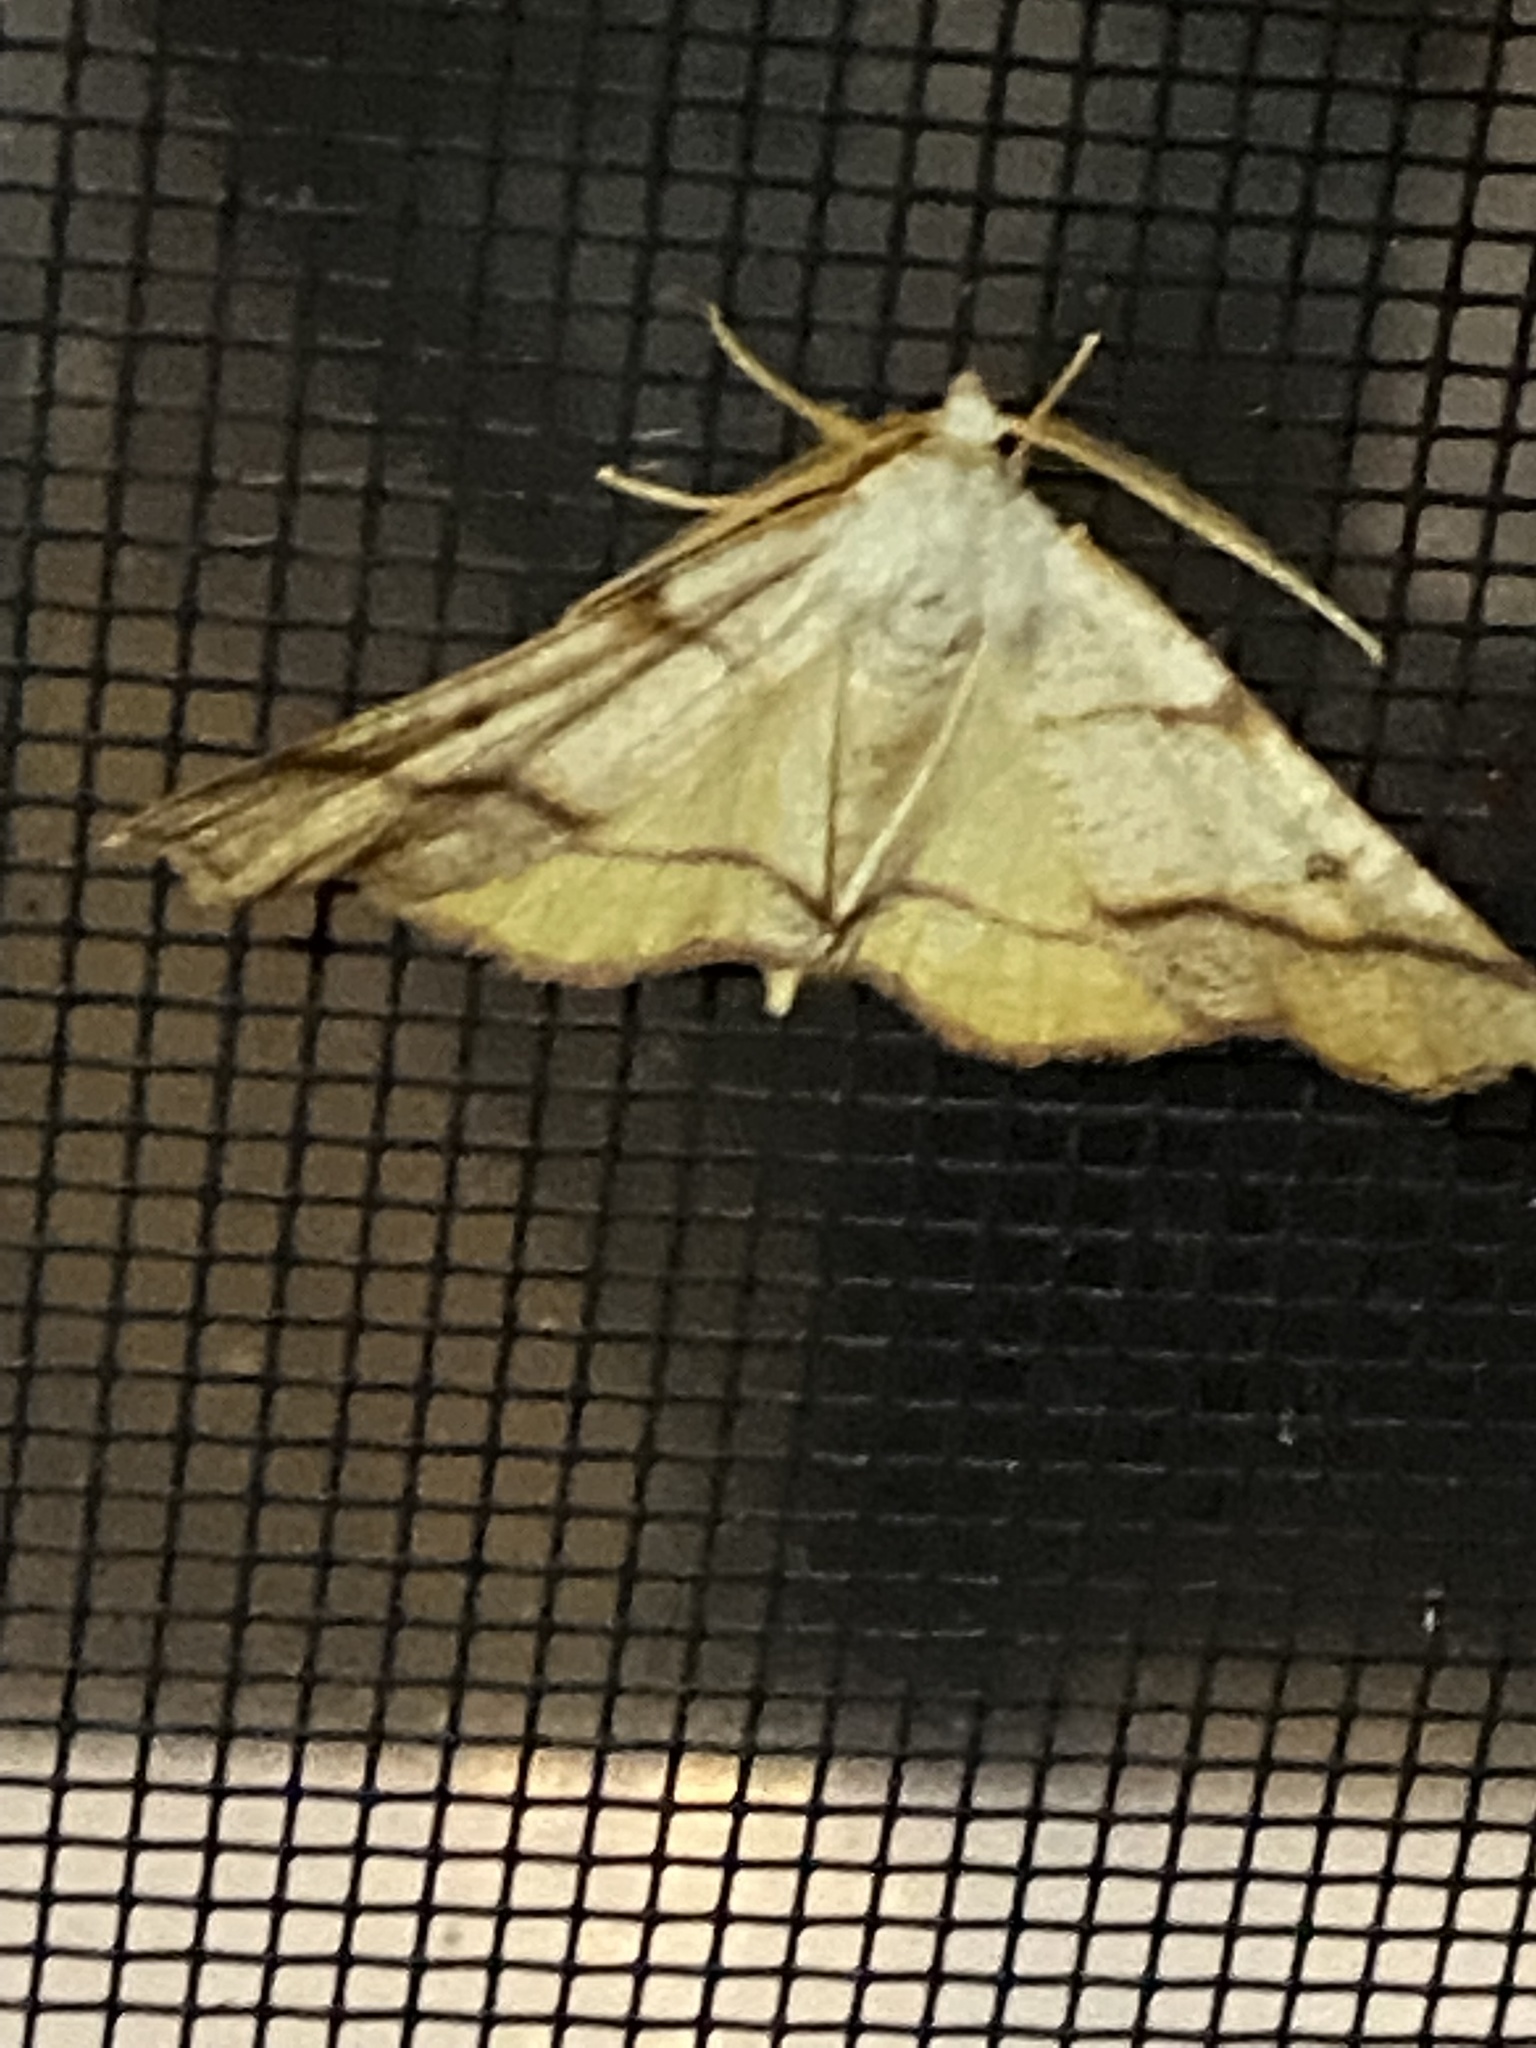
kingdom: Animalia
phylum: Arthropoda
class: Insecta
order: Lepidoptera
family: Geometridae
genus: Plagodis
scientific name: Plagodis alcoolaria
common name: Hollow-spotted plagodis
